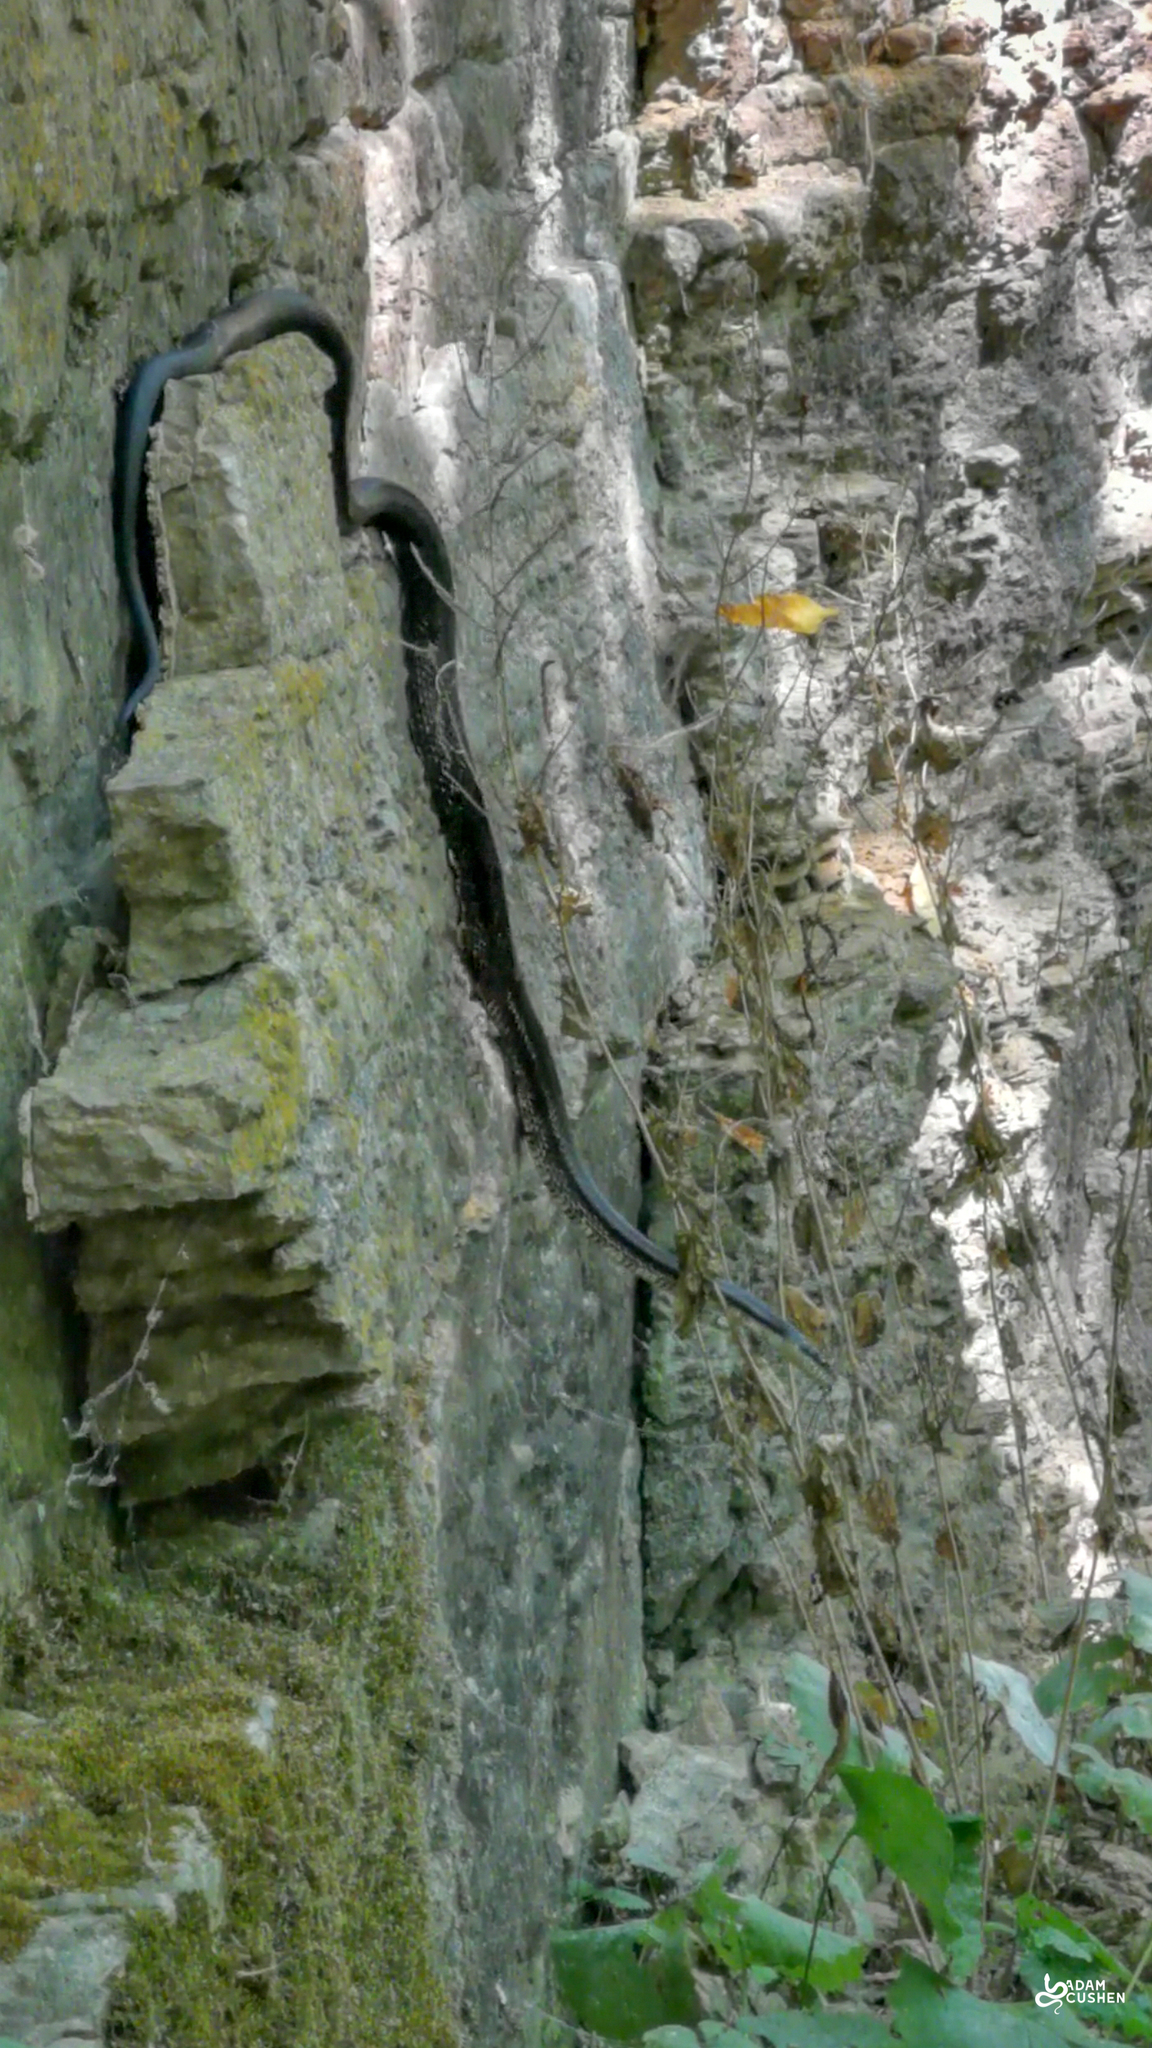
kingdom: Animalia
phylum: Chordata
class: Squamata
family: Colubridae
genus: Pantherophis
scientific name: Pantherophis spiloides
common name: Gray rat snake
